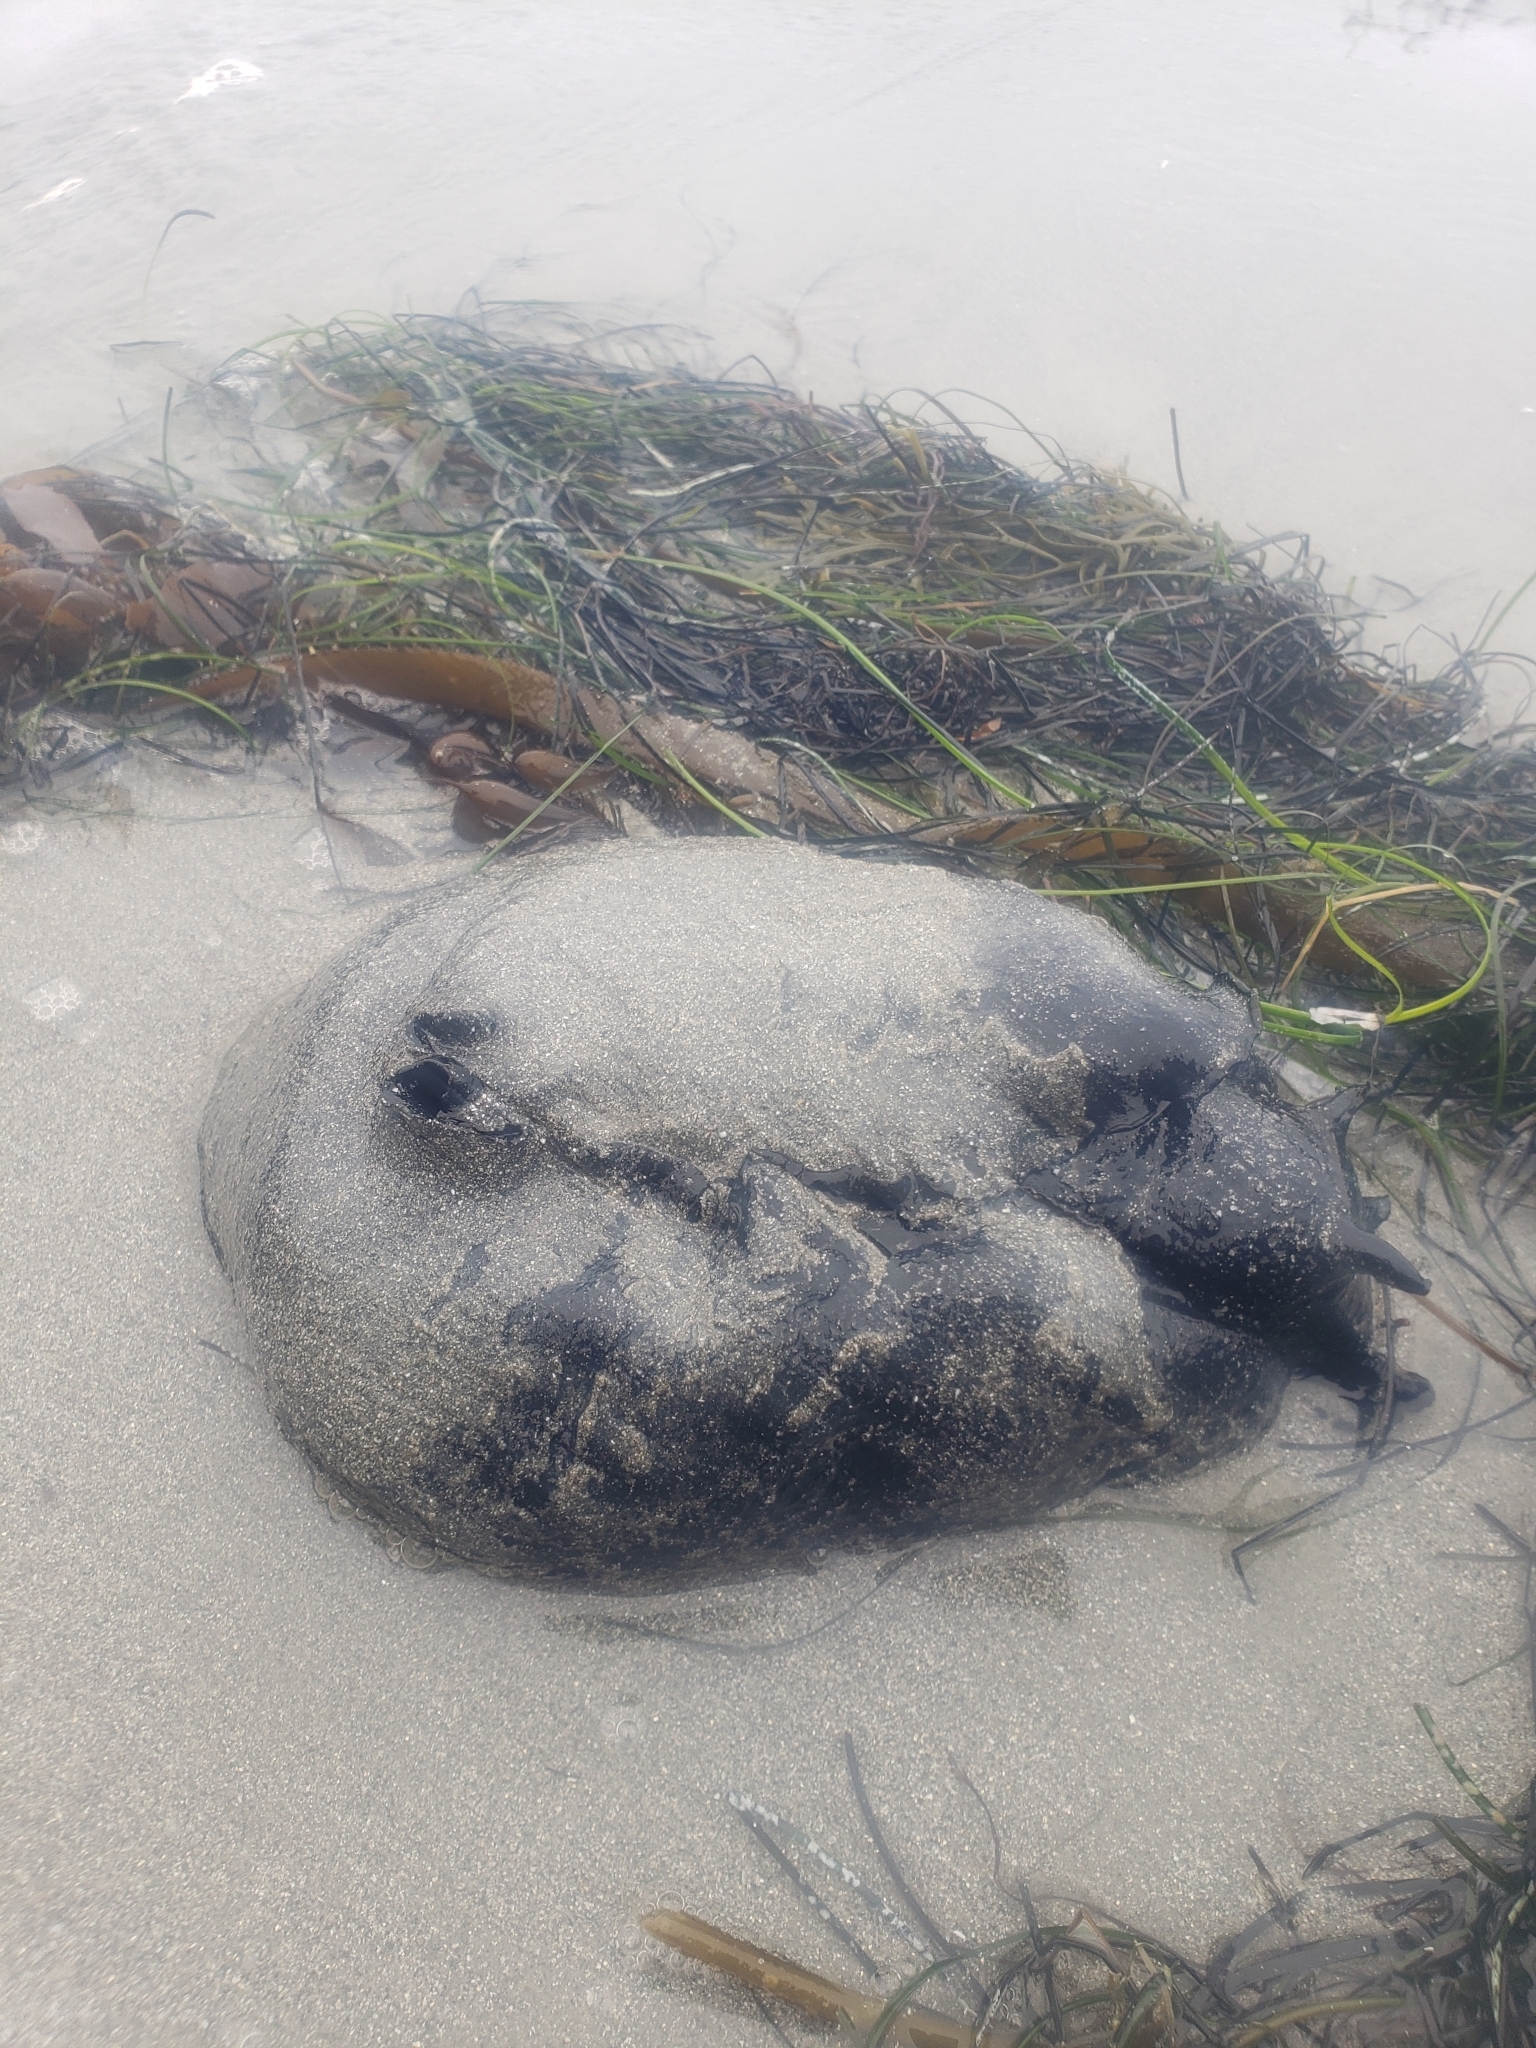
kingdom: Animalia
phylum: Mollusca
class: Gastropoda
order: Aplysiida
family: Aplysiidae
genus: Aplysia
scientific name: Aplysia vaccaria
